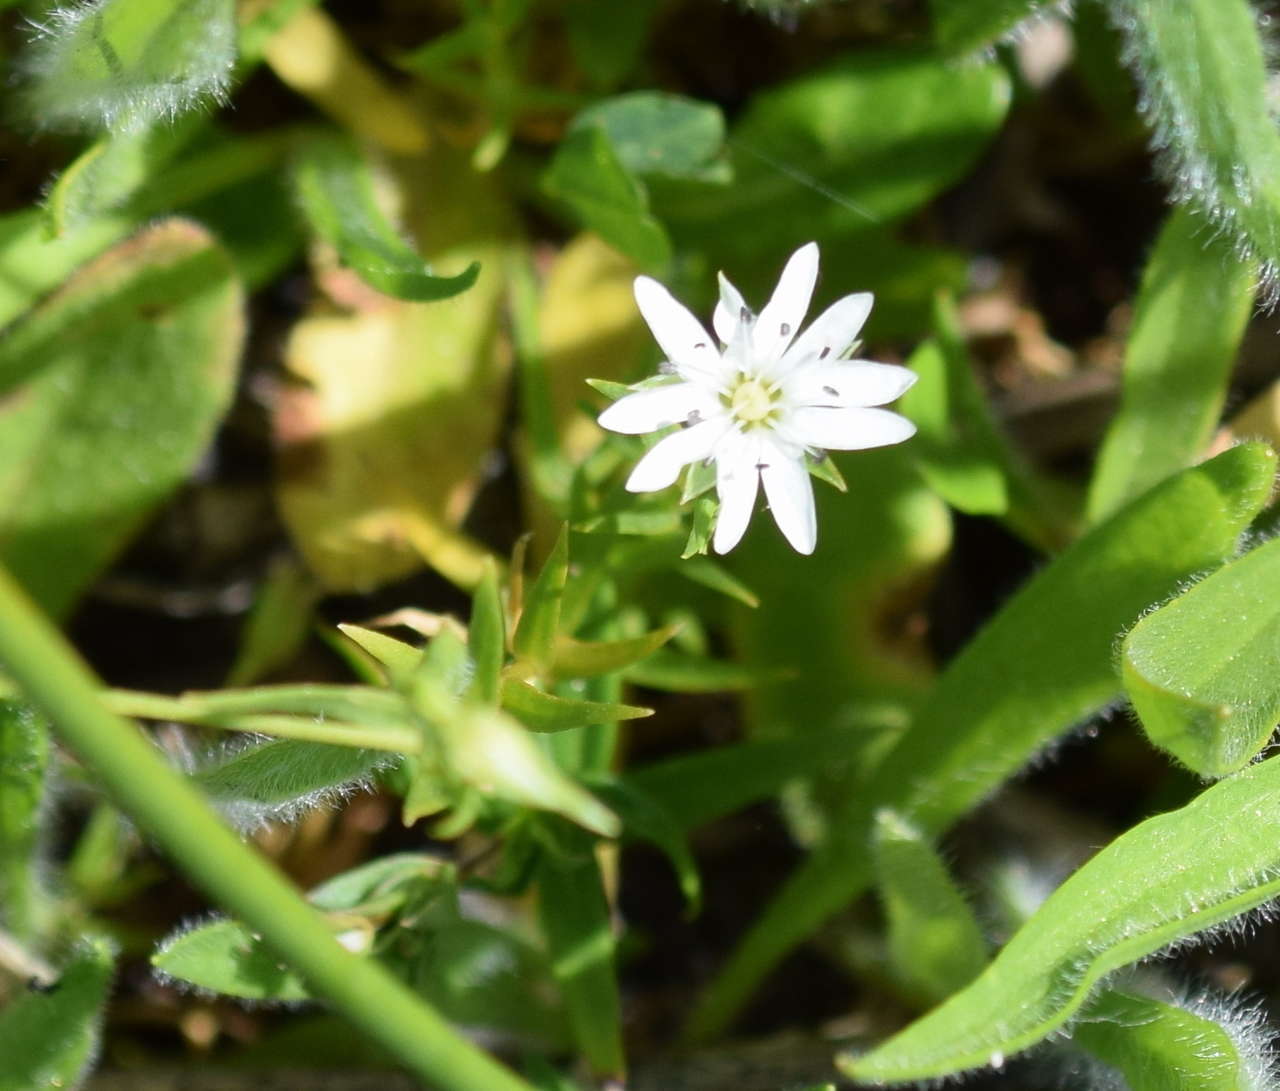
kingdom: Plantae
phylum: Tracheophyta
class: Magnoliopsida
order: Caryophyllales
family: Caryophyllaceae
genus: Stellaria
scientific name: Stellaria angustifolia
